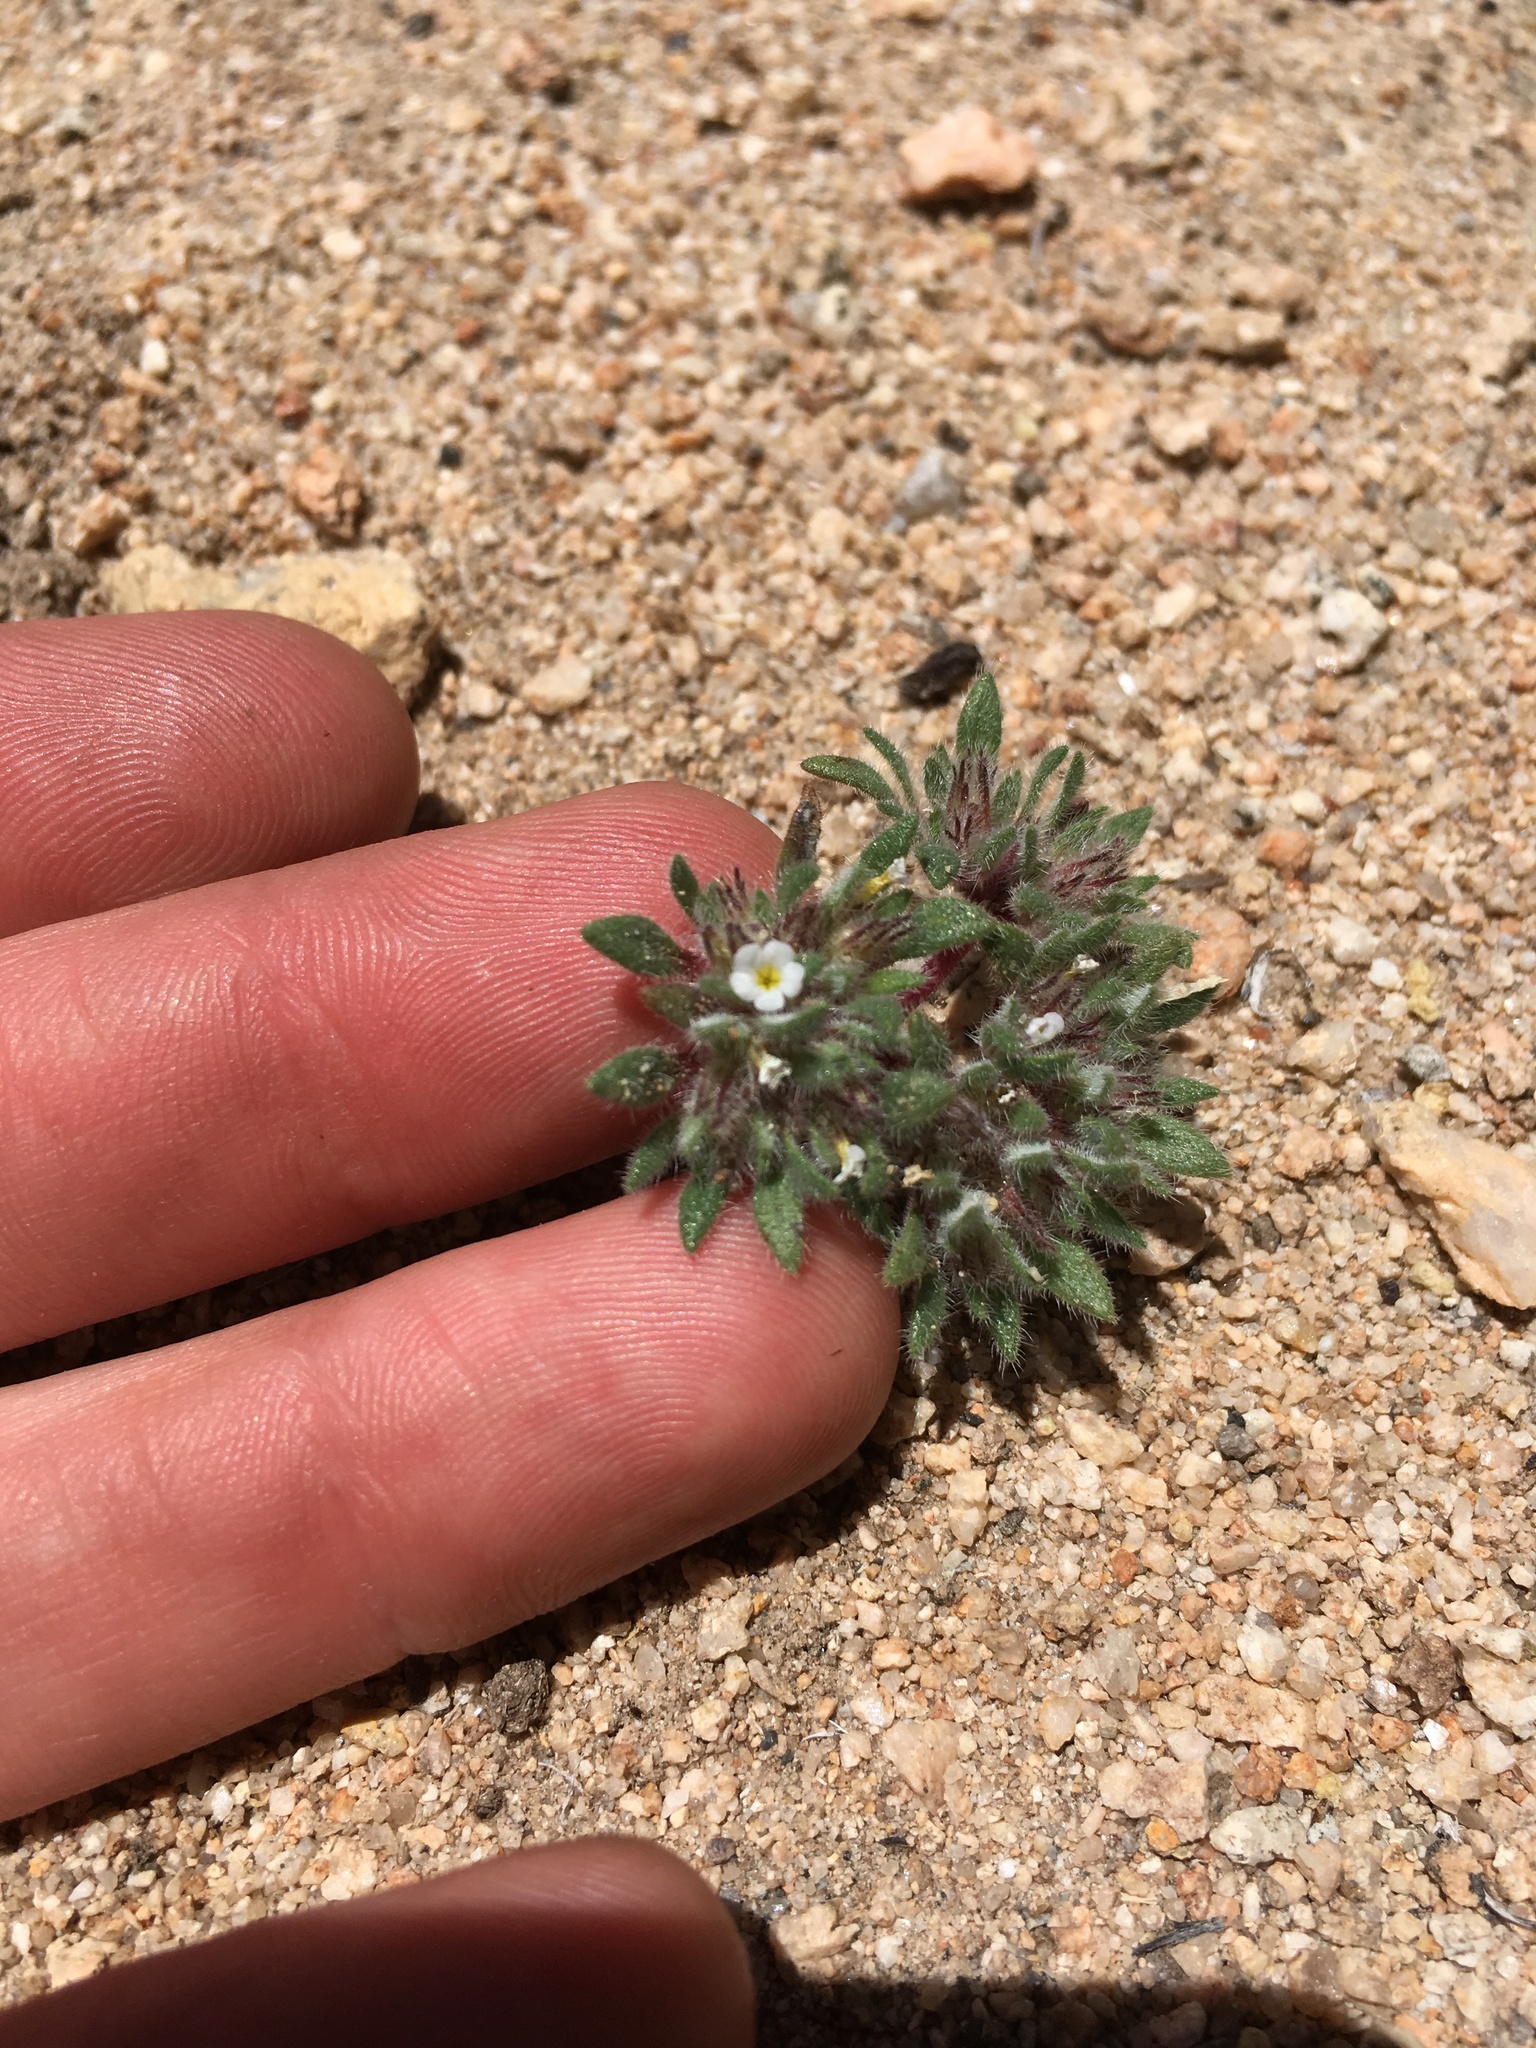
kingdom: Plantae
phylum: Tracheophyta
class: Magnoliopsida
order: Boraginales
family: Namaceae
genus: Nama
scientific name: Nama densa
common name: Leafy nama
